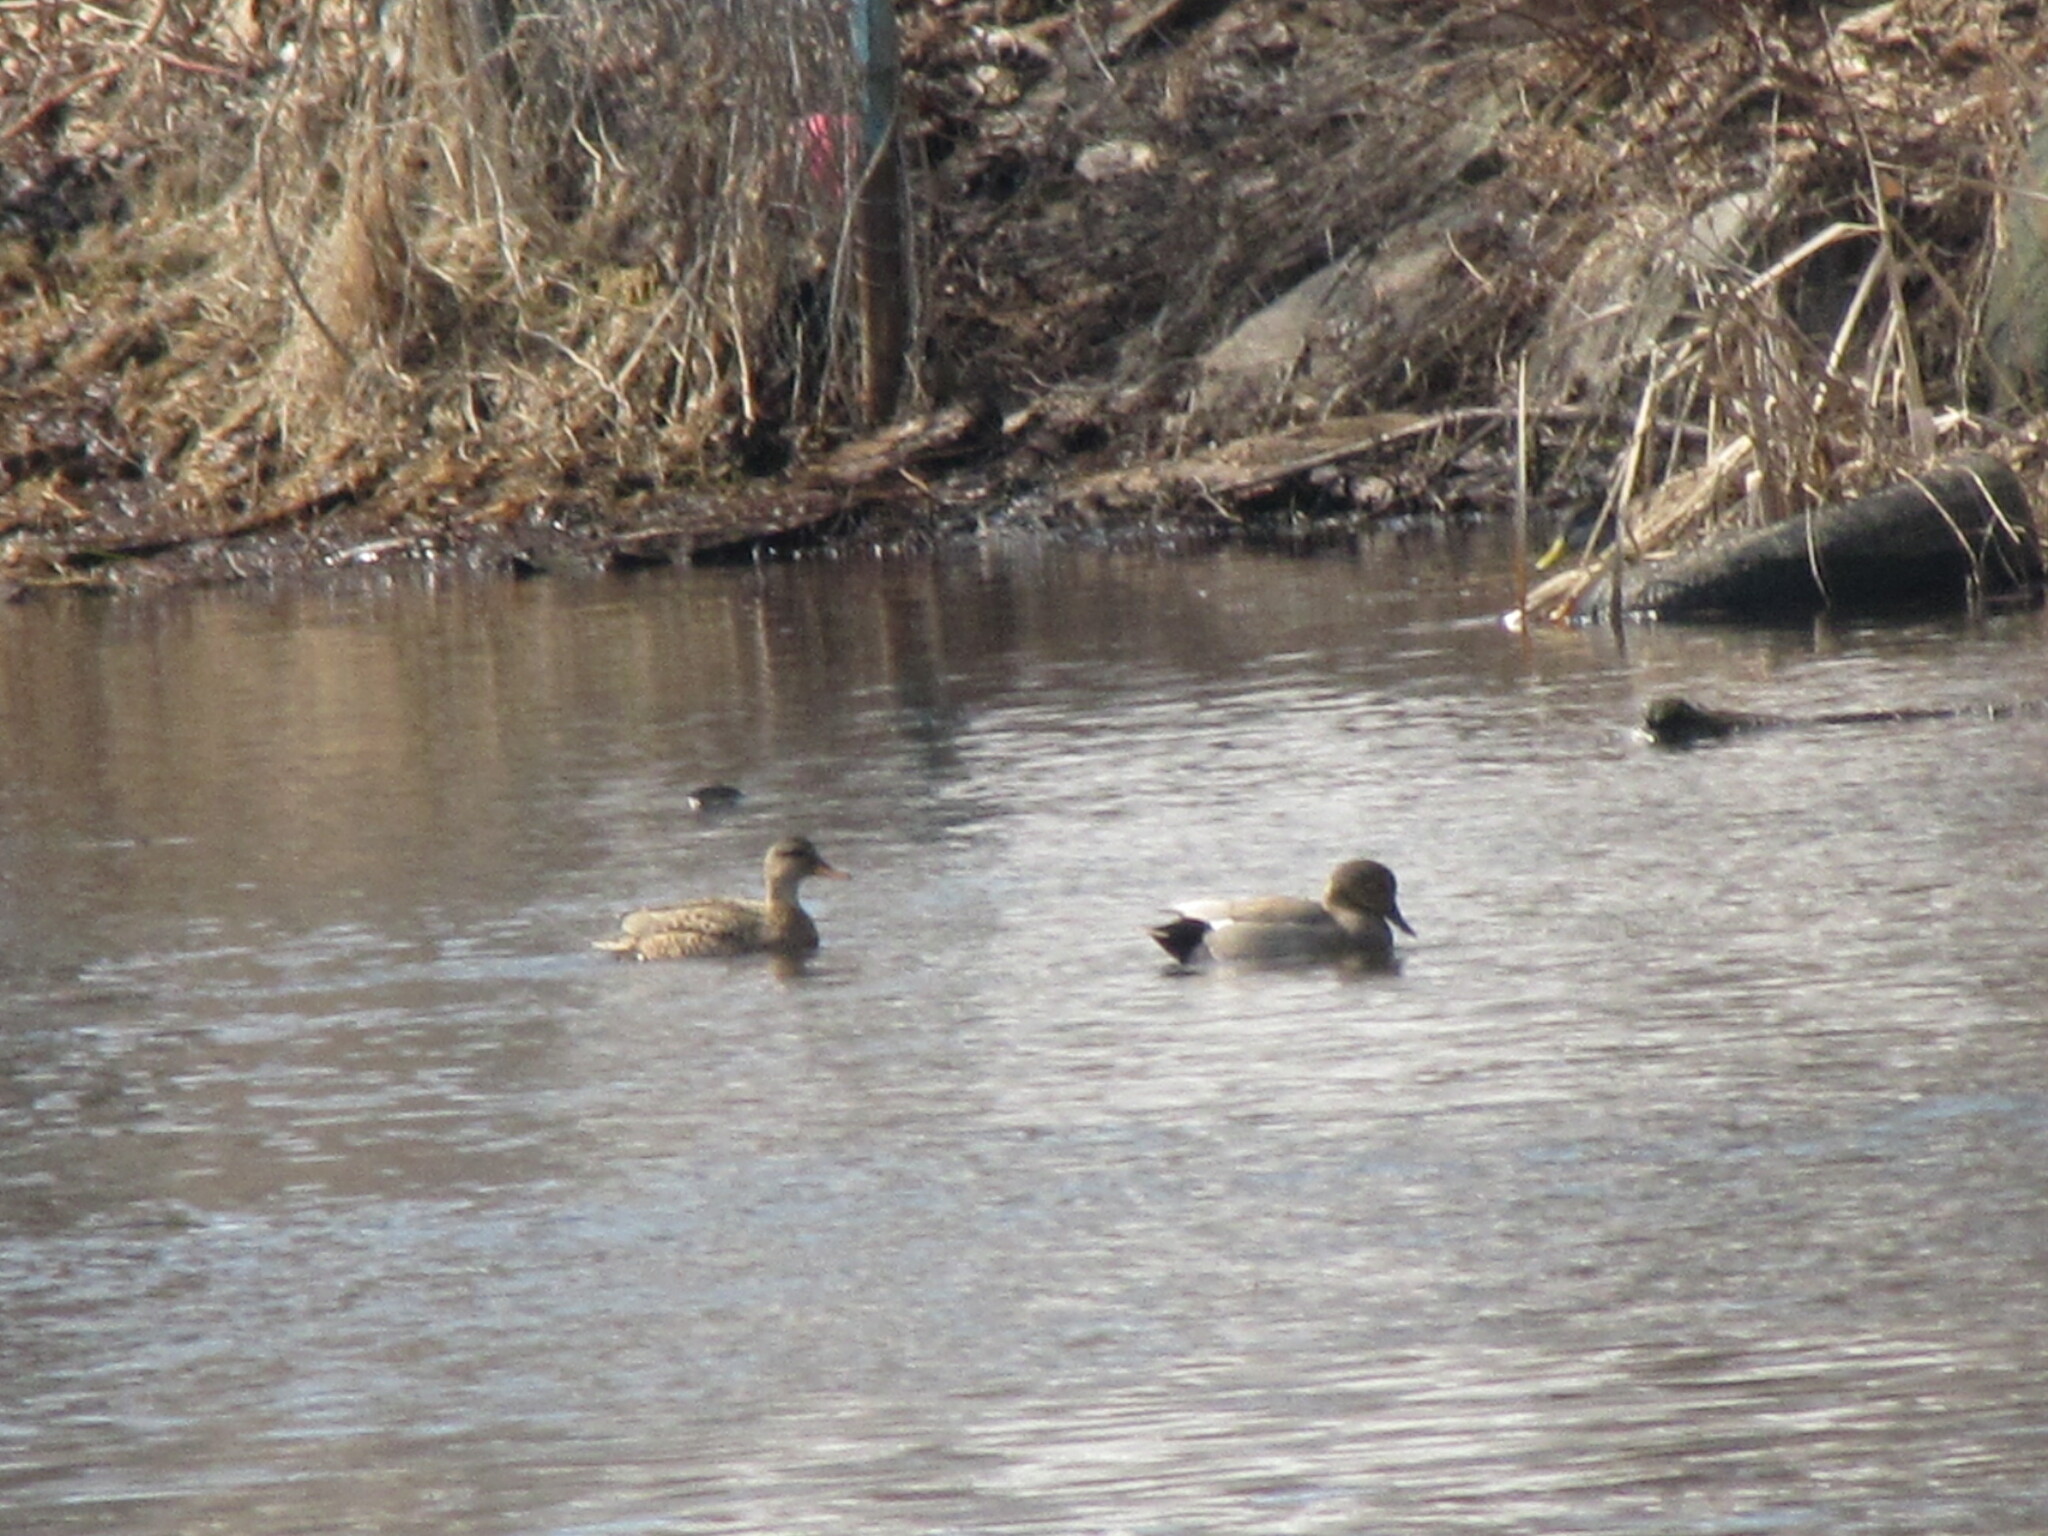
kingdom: Animalia
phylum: Chordata
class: Aves
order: Anseriformes
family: Anatidae
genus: Mareca
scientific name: Mareca strepera
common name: Gadwall
